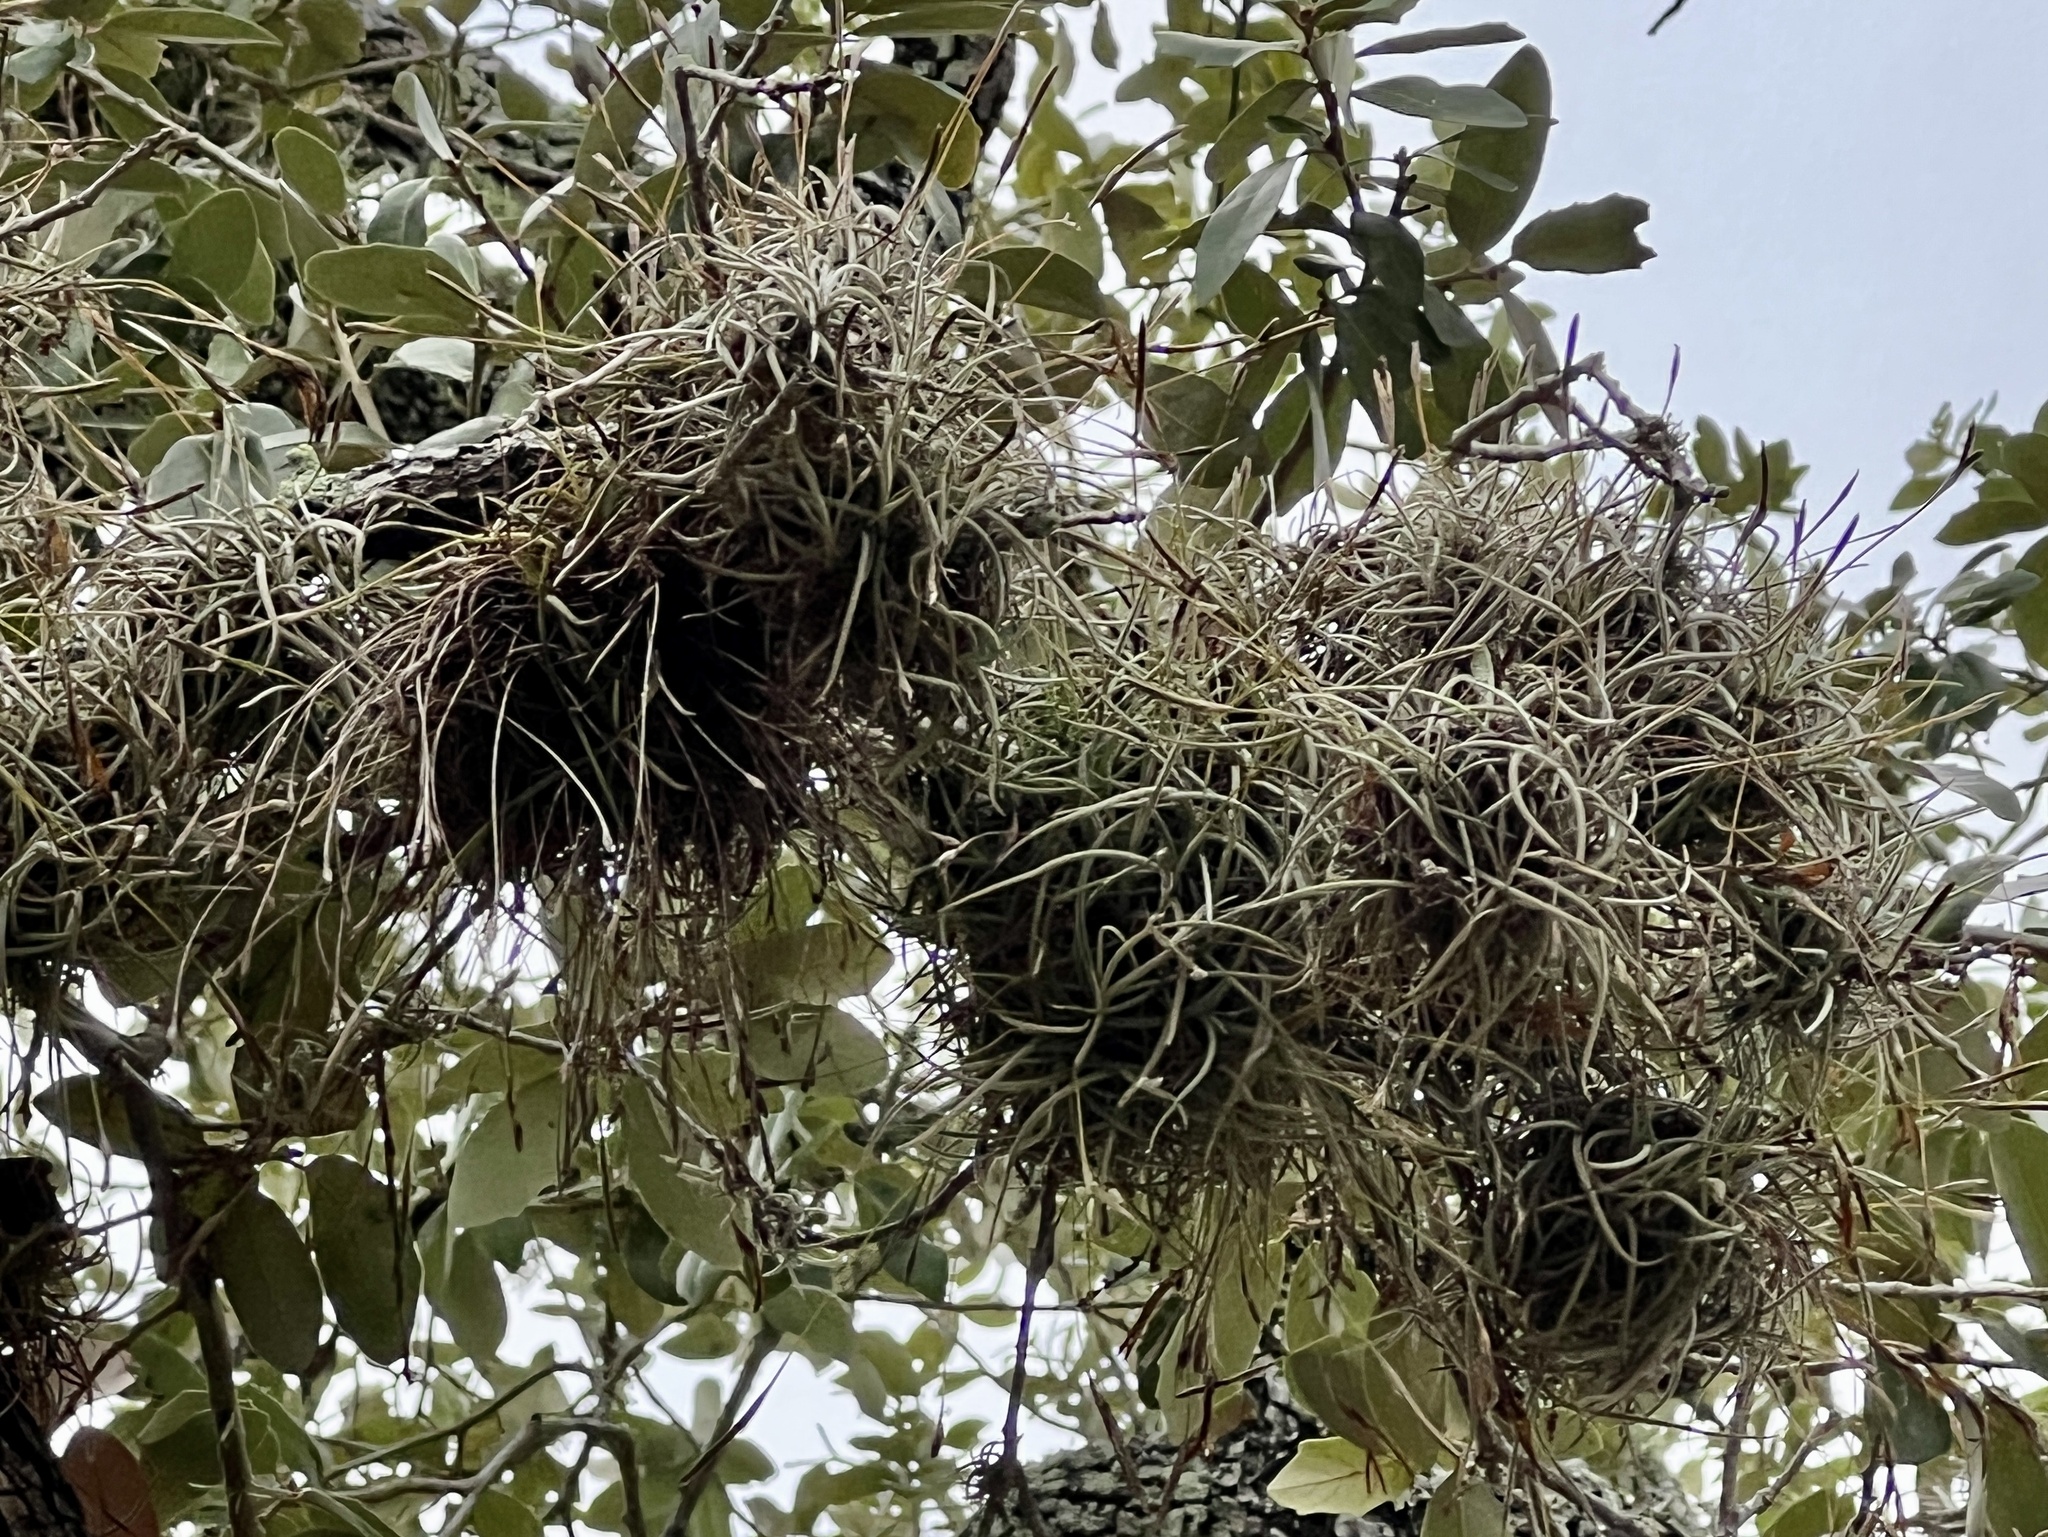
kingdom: Plantae
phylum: Tracheophyta
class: Liliopsida
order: Poales
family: Bromeliaceae
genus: Tillandsia
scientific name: Tillandsia recurvata
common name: Small ballmoss
